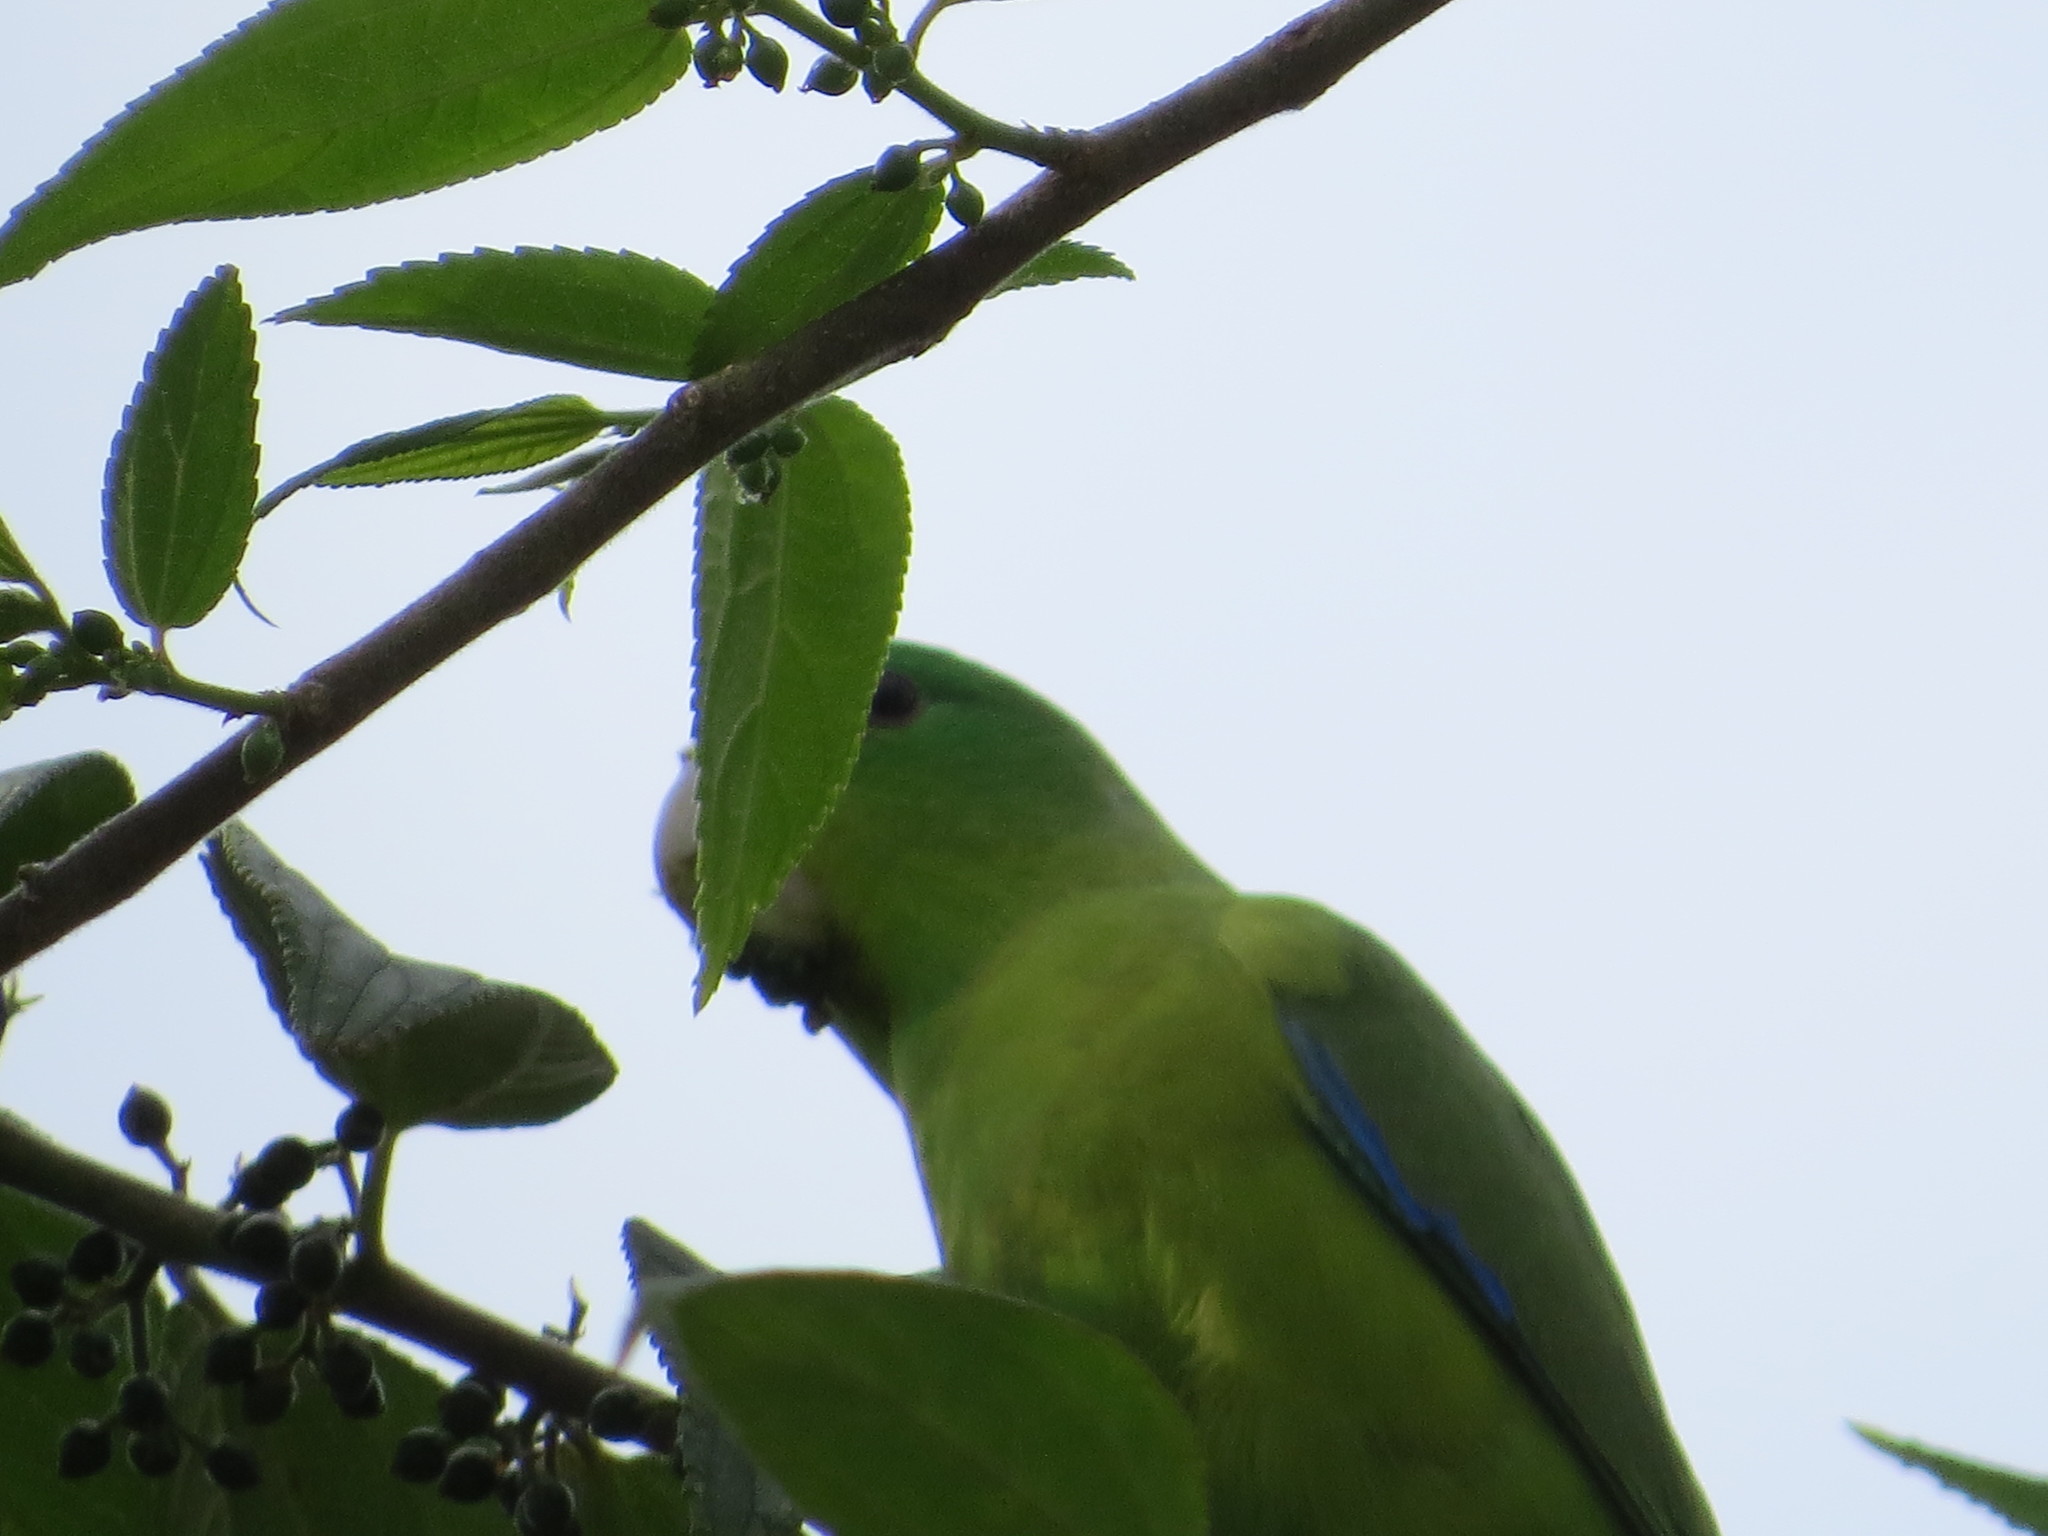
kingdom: Animalia
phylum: Chordata
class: Aves
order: Psittaciformes
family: Psittacidae
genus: Forpus
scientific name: Forpus xanthopterygius
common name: Blue-winged parrotlet
